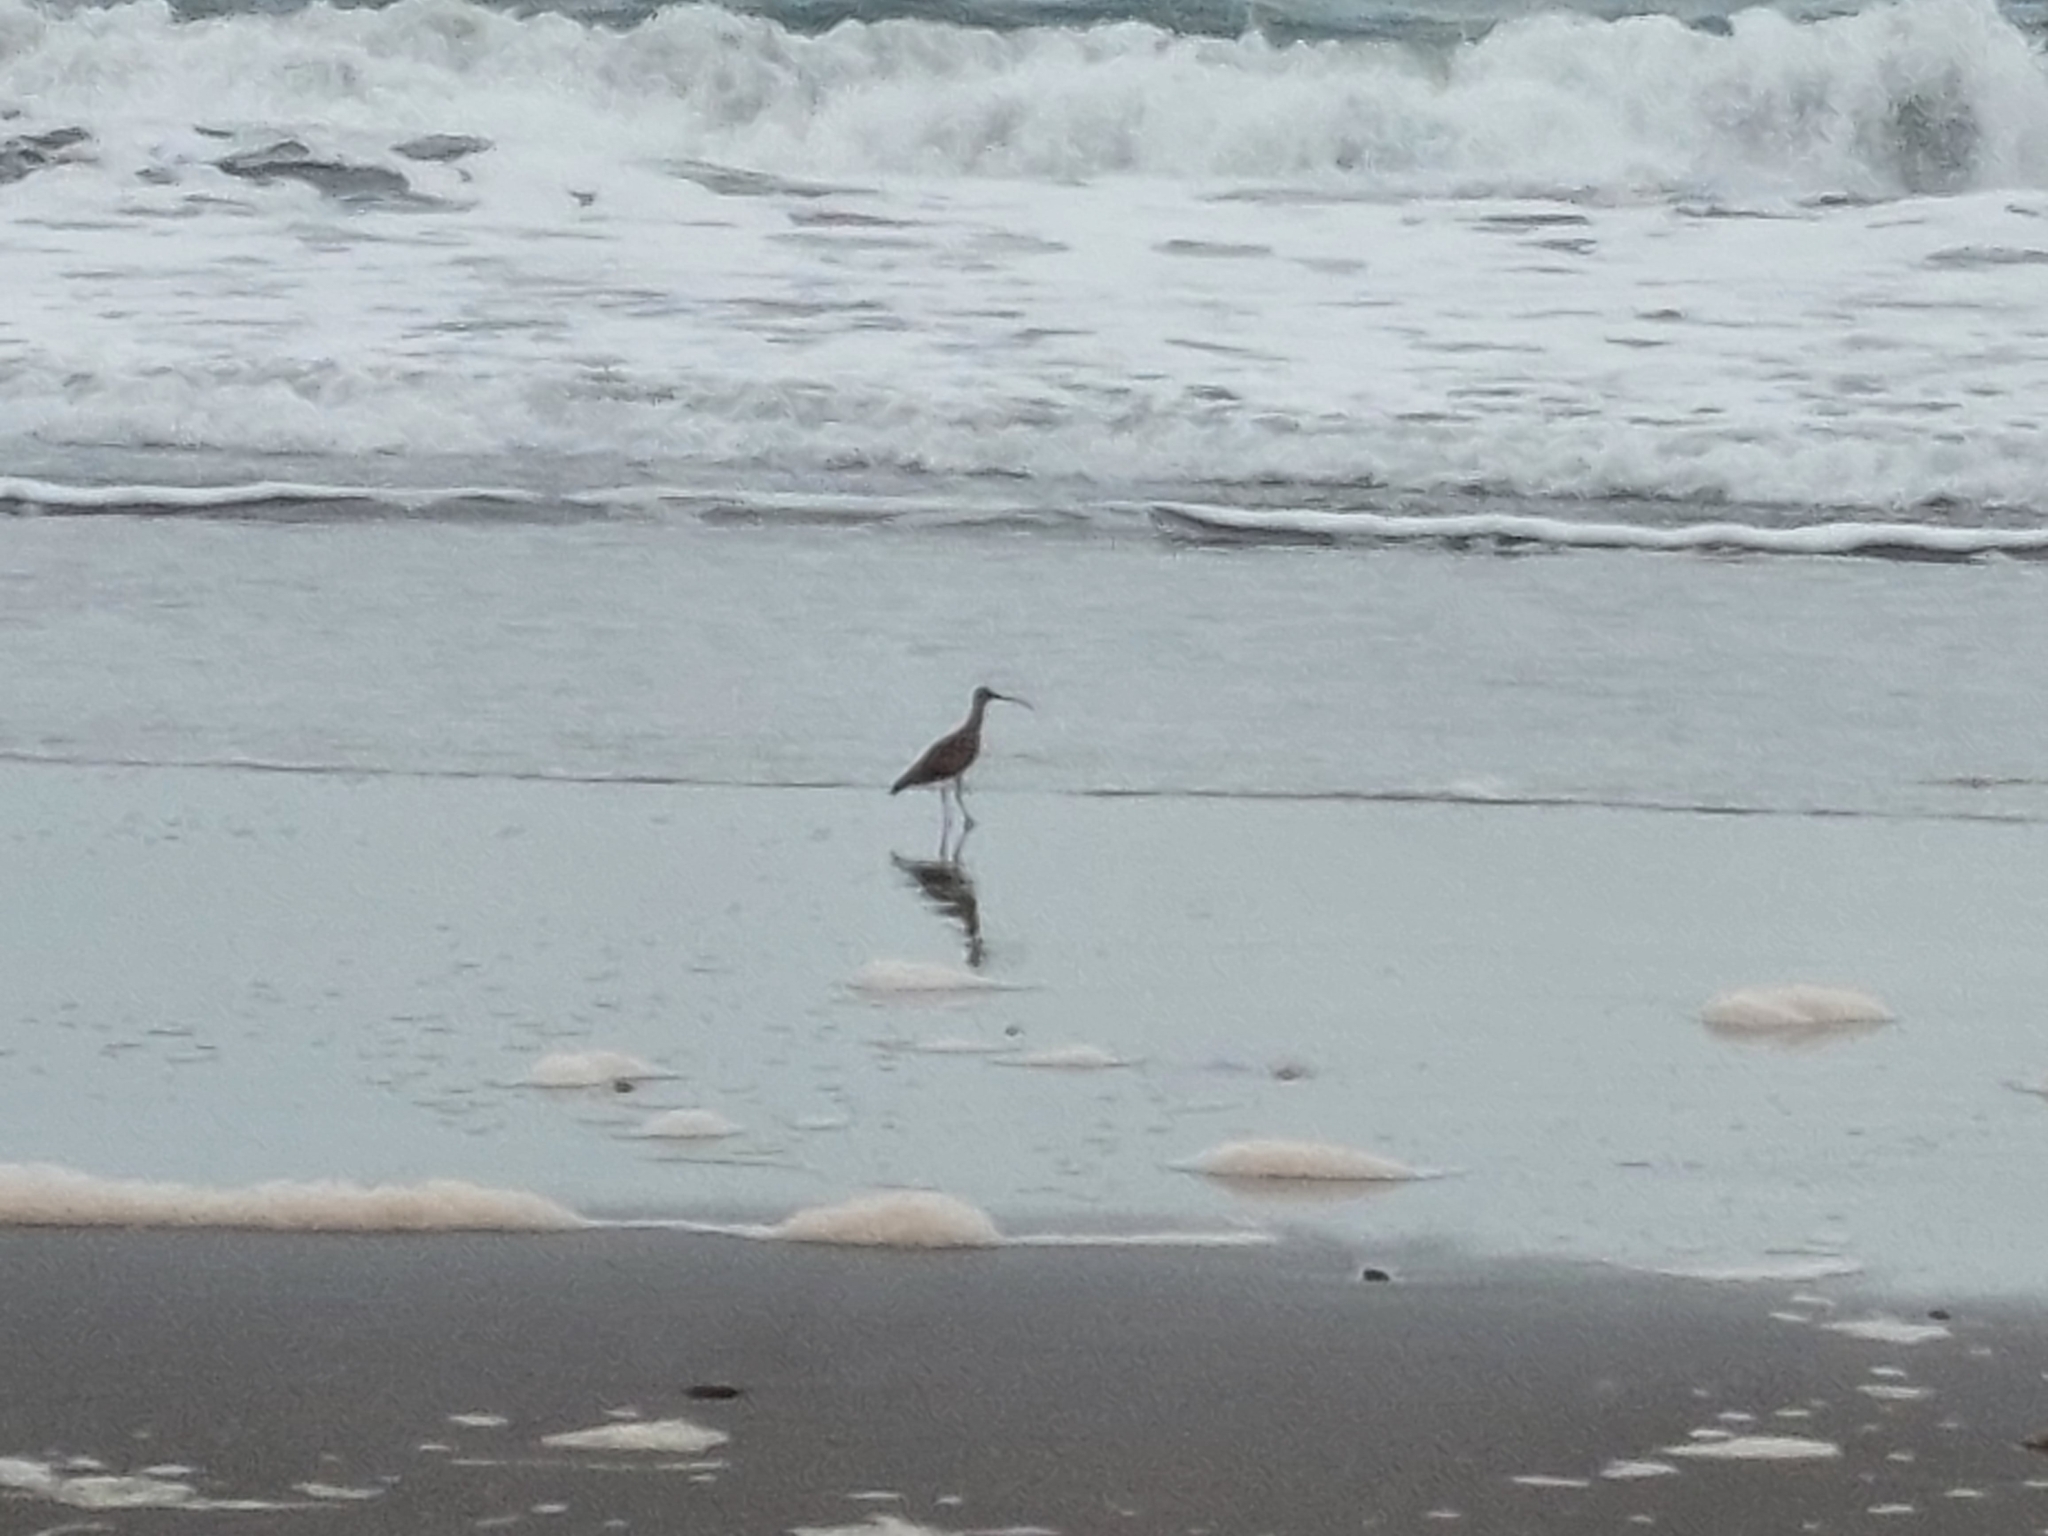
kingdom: Animalia
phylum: Chordata
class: Aves
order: Charadriiformes
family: Scolopacidae
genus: Numenius
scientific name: Numenius phaeopus
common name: Whimbrel
